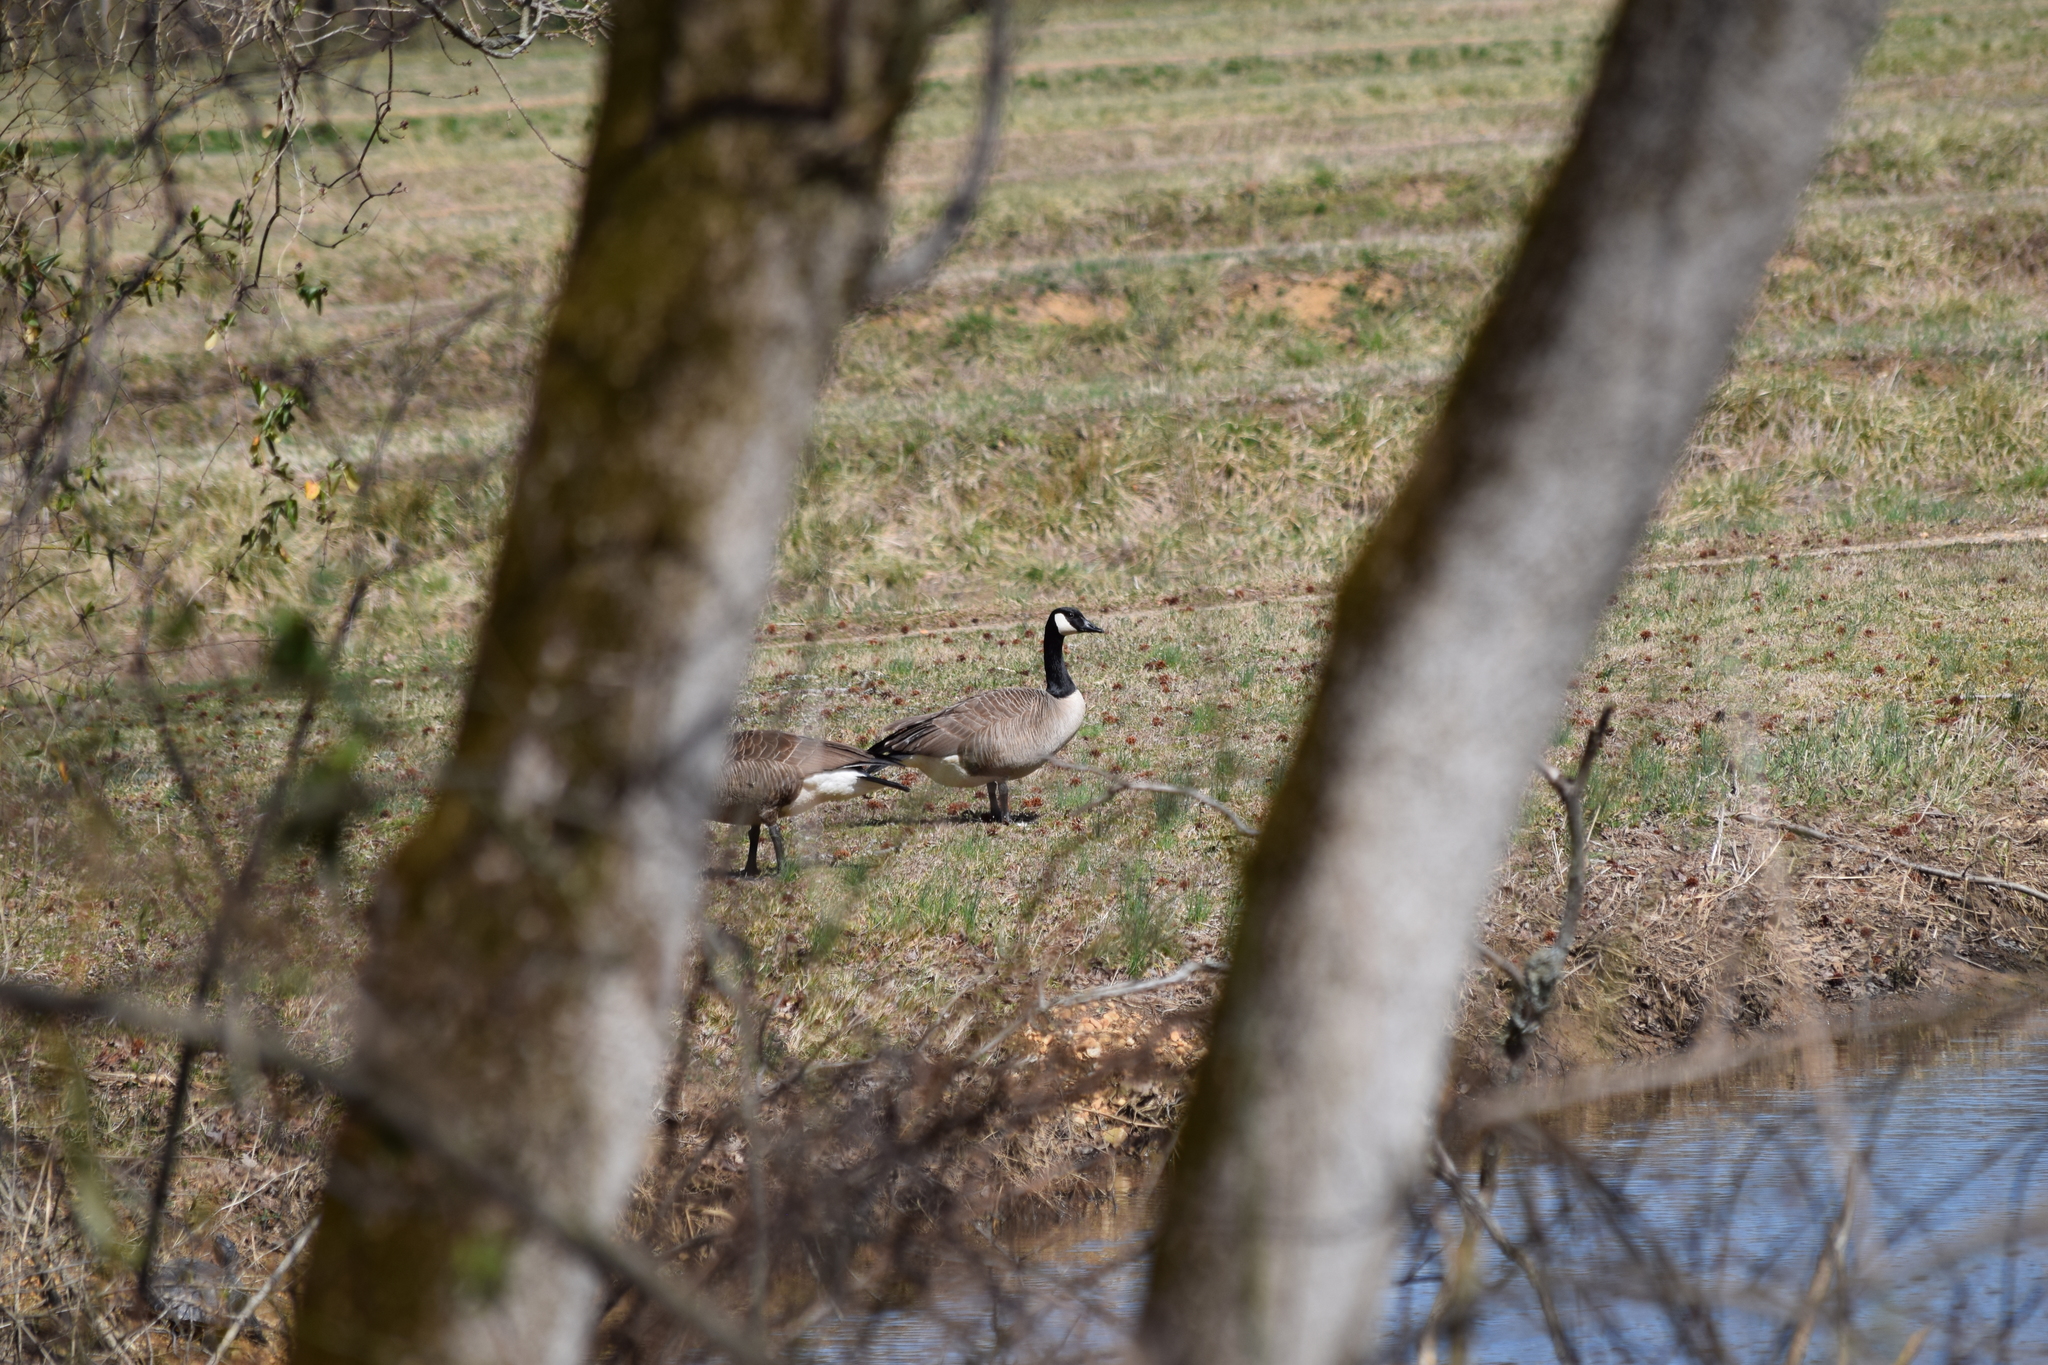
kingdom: Animalia
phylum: Chordata
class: Aves
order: Anseriformes
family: Anatidae
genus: Branta
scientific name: Branta canadensis
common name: Canada goose
